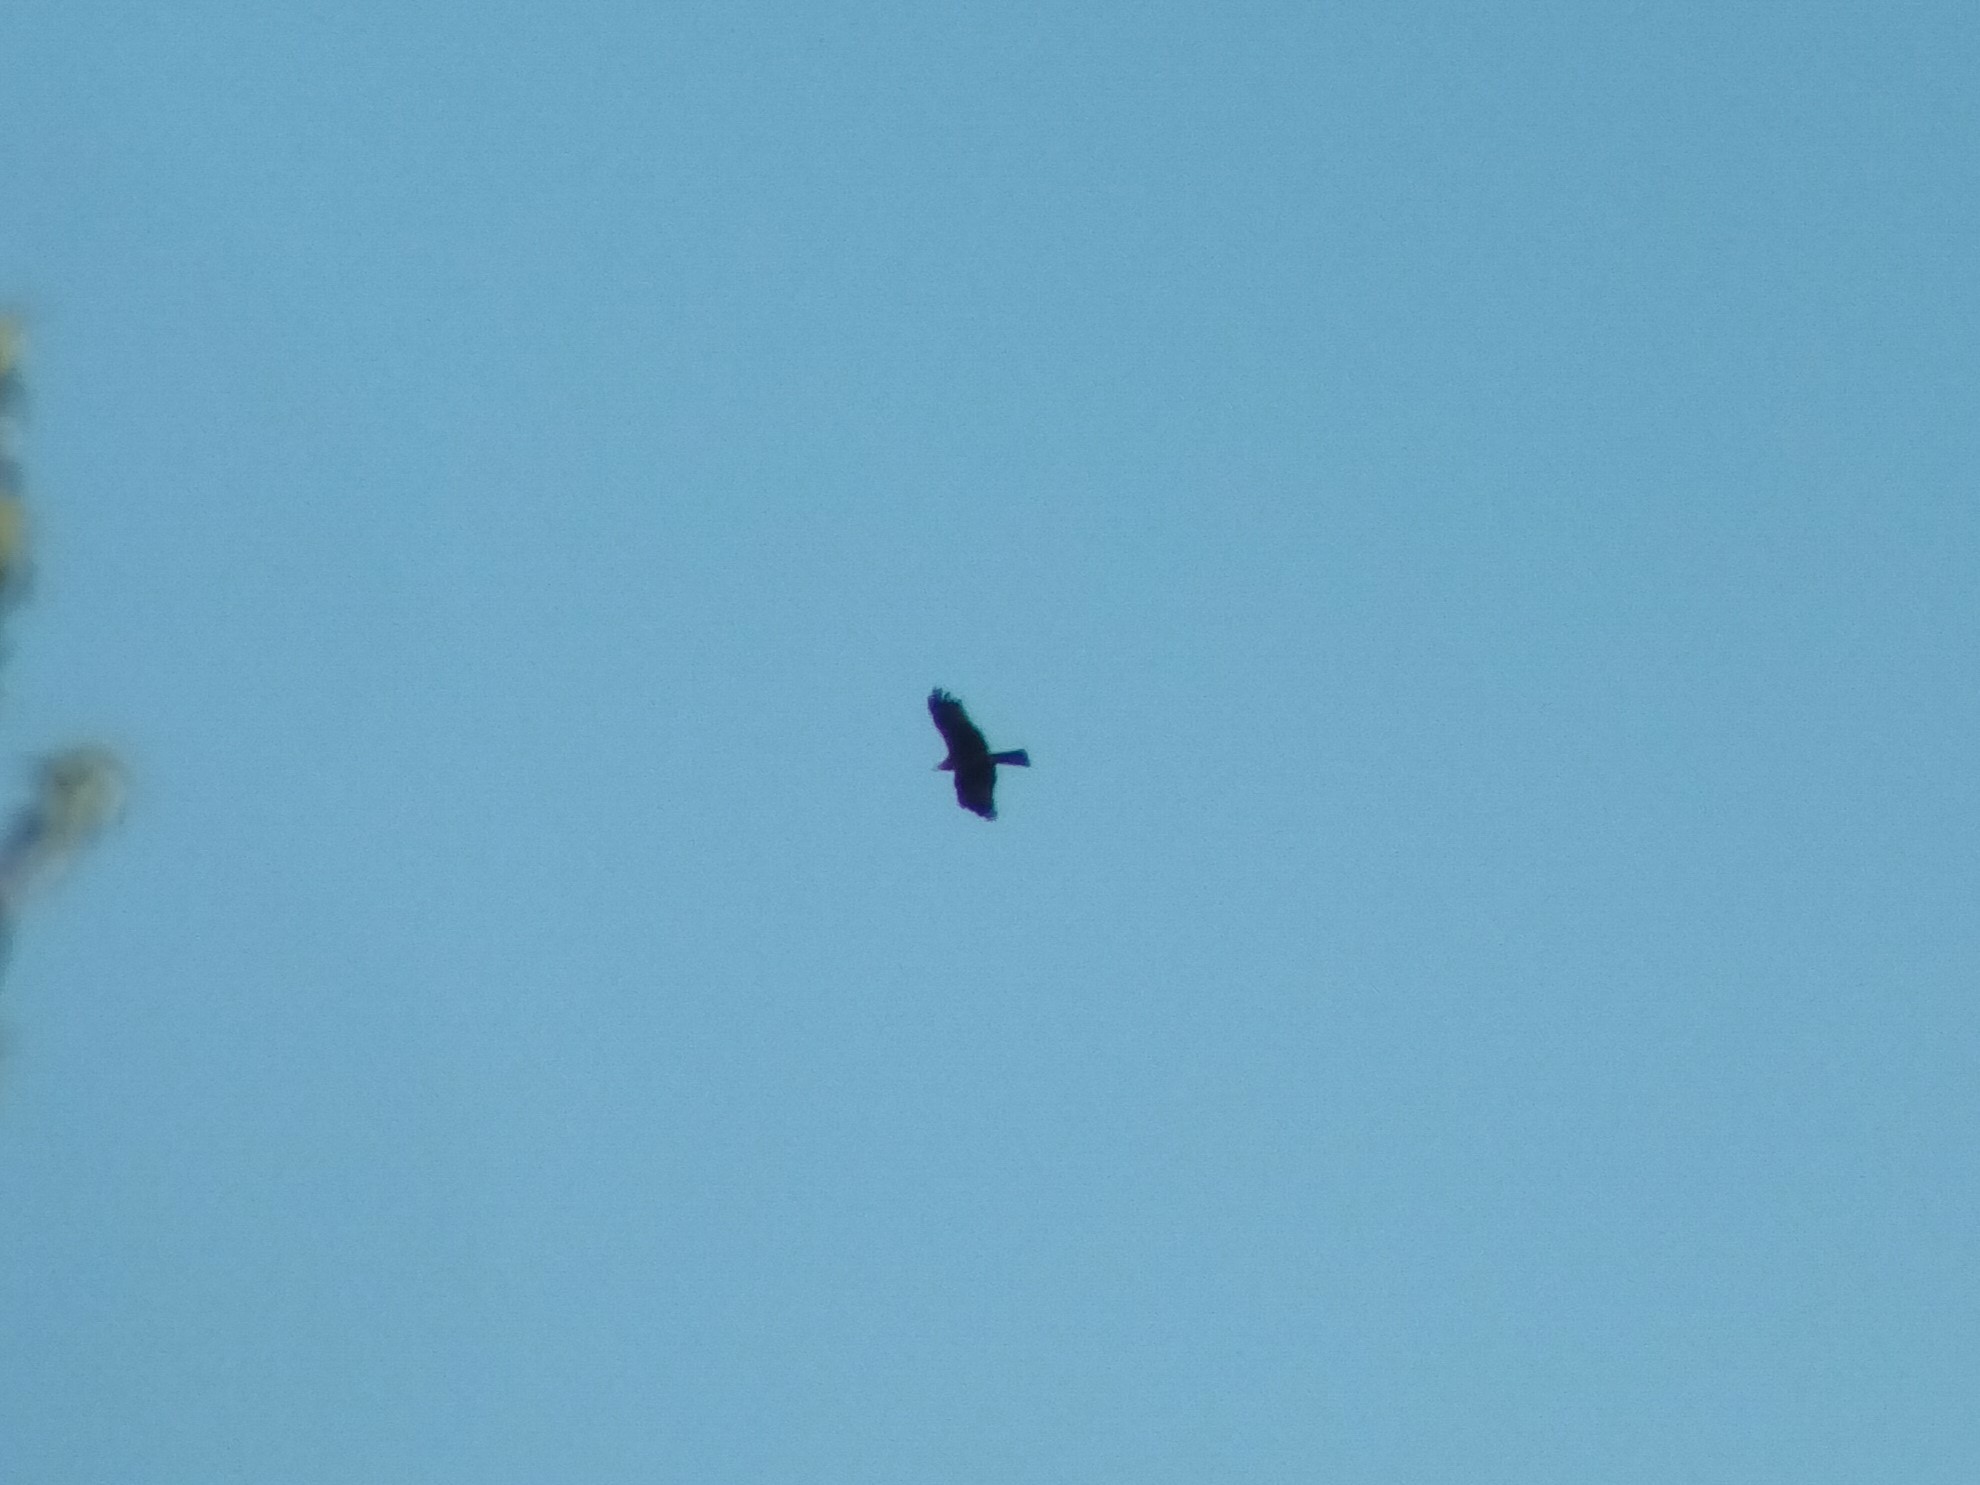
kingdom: Animalia
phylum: Chordata
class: Aves
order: Accipitriformes
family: Accipitridae
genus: Milvus
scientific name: Milvus migrans
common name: Black kite
